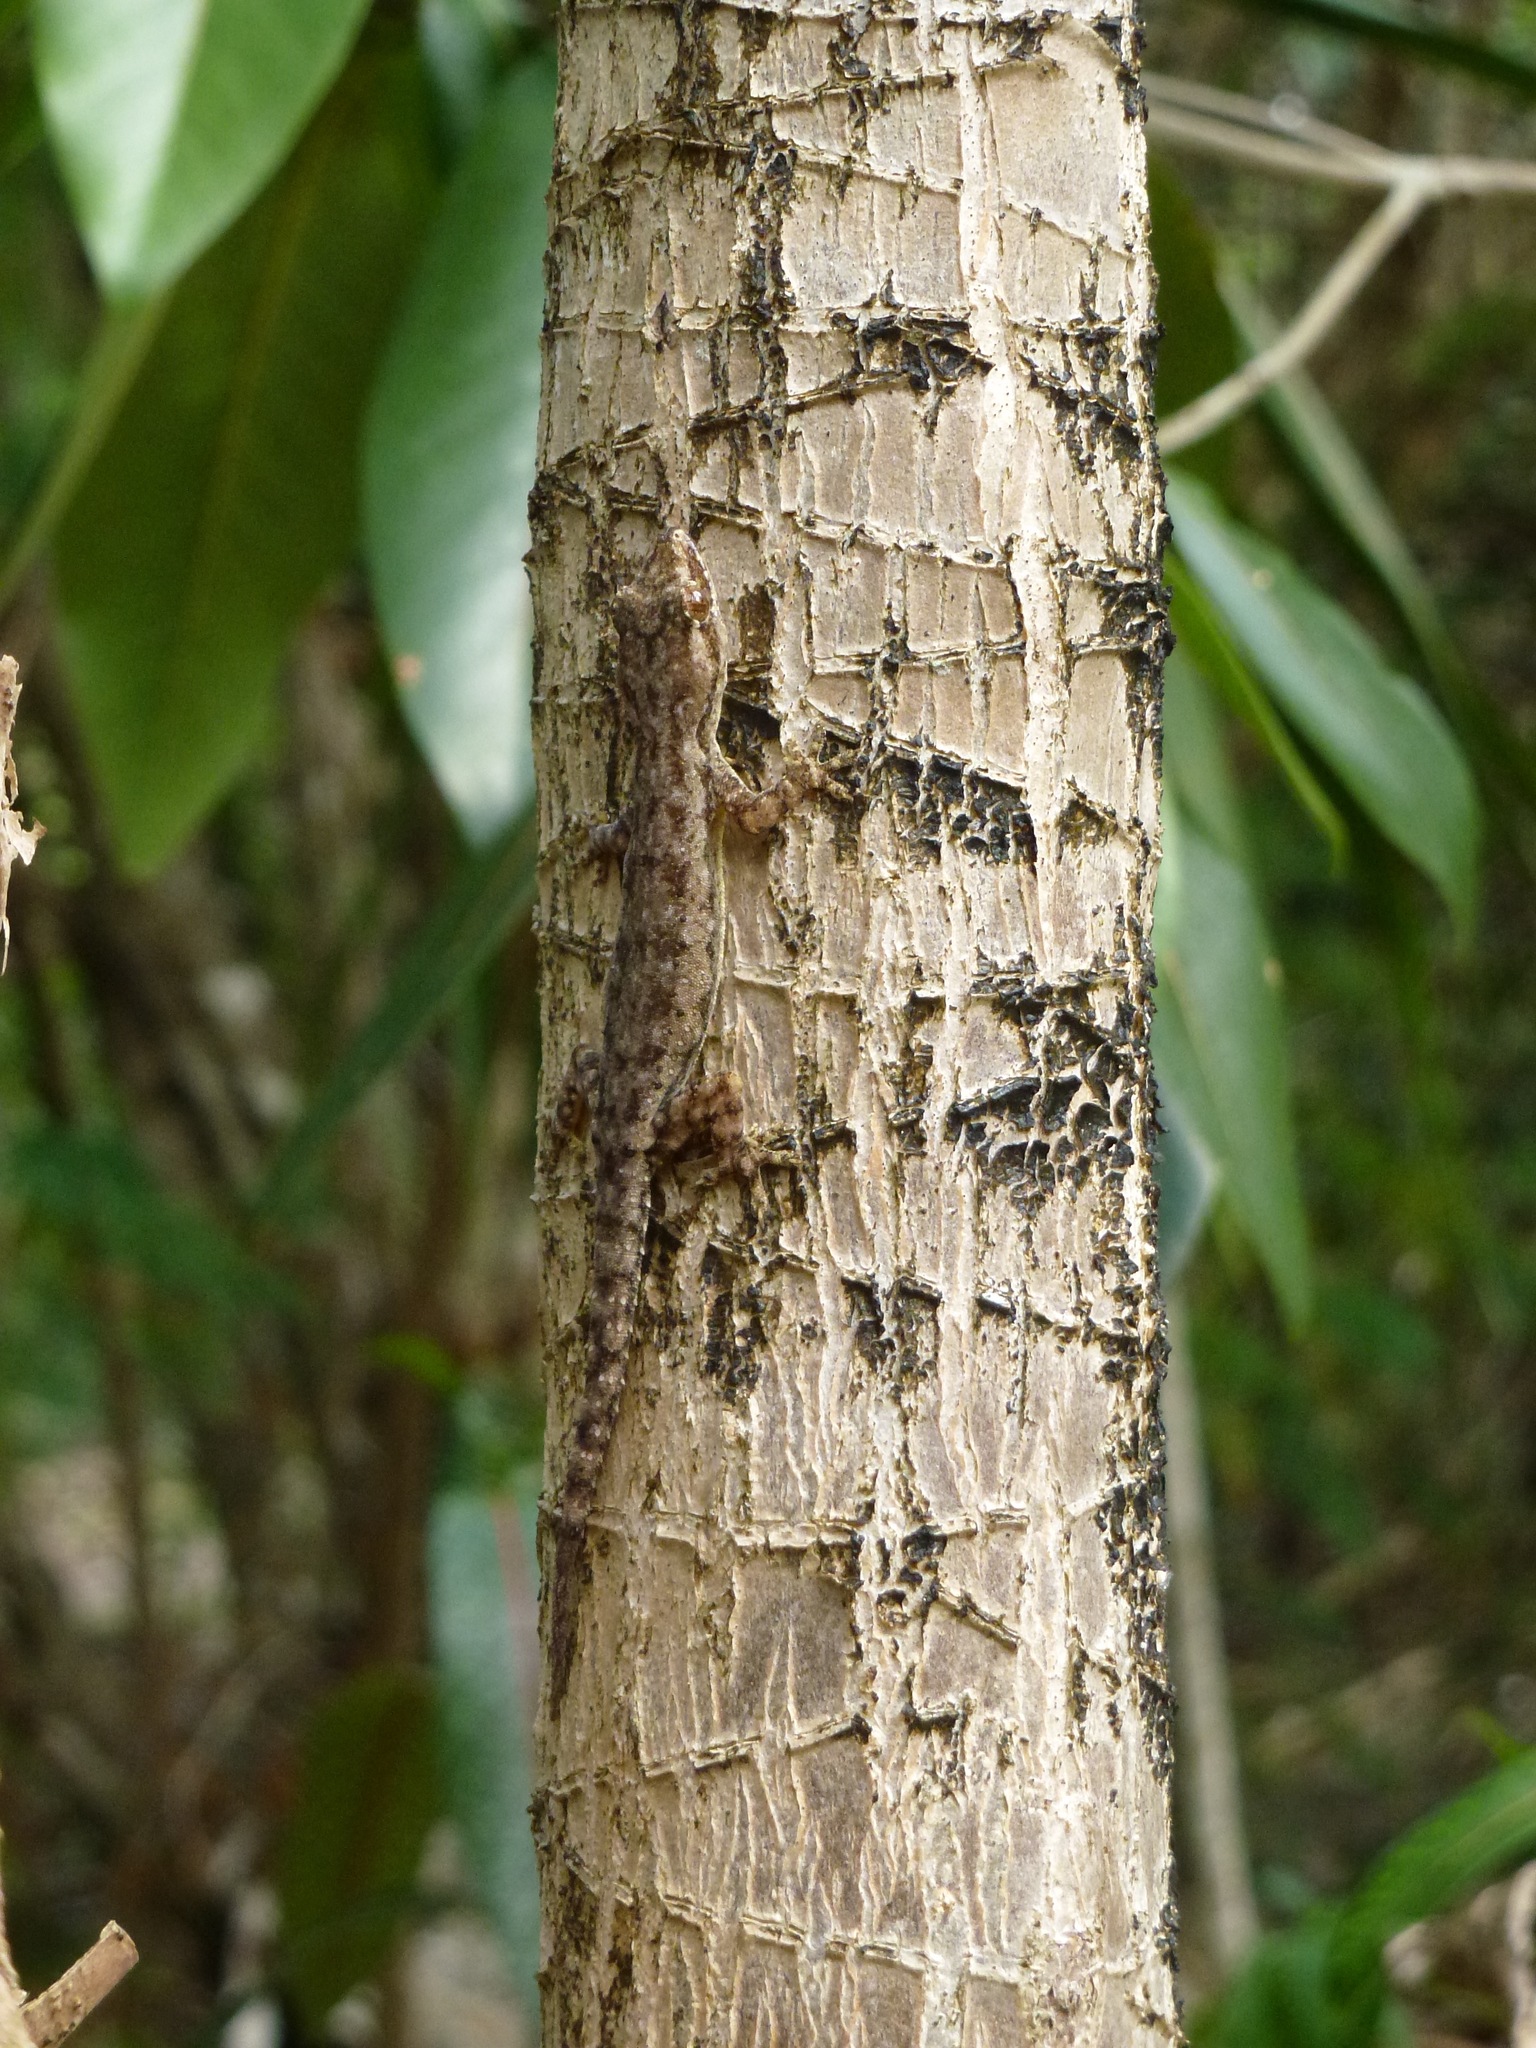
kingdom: Animalia
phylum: Chordata
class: Squamata
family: Gekkonidae
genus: Hemidactylus
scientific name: Hemidactylus frenatus
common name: Common house gecko
